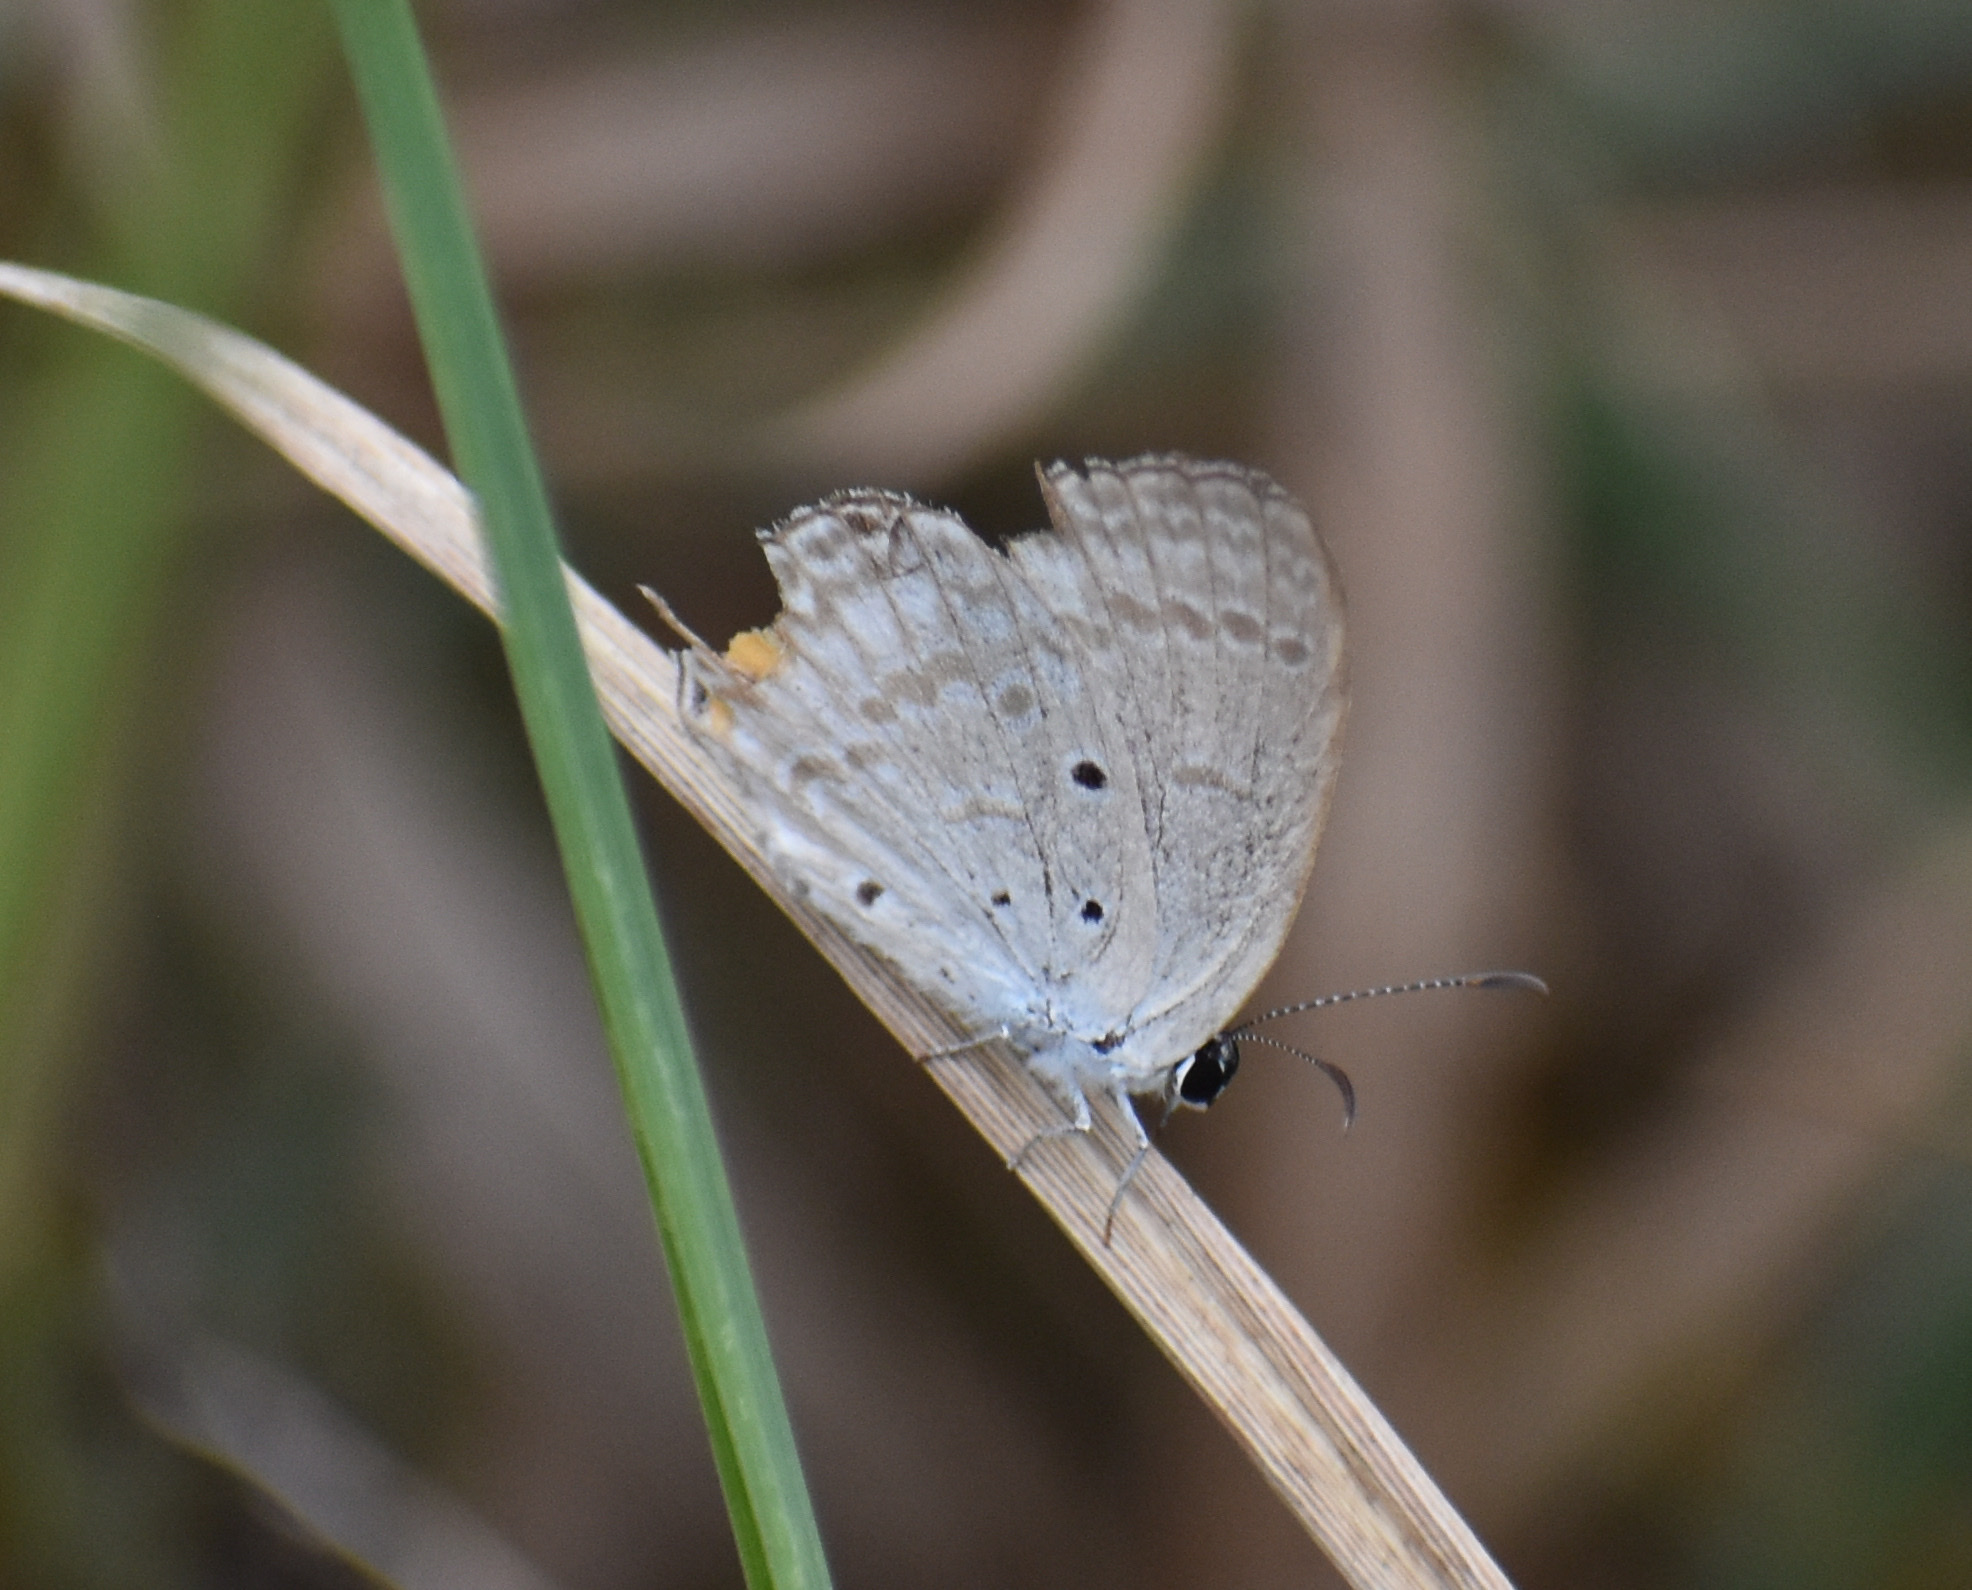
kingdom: Animalia
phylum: Arthropoda
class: Insecta
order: Lepidoptera
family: Lycaenidae
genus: Euchrysops
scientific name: Euchrysops barkeri
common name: Barker's smoky blue
